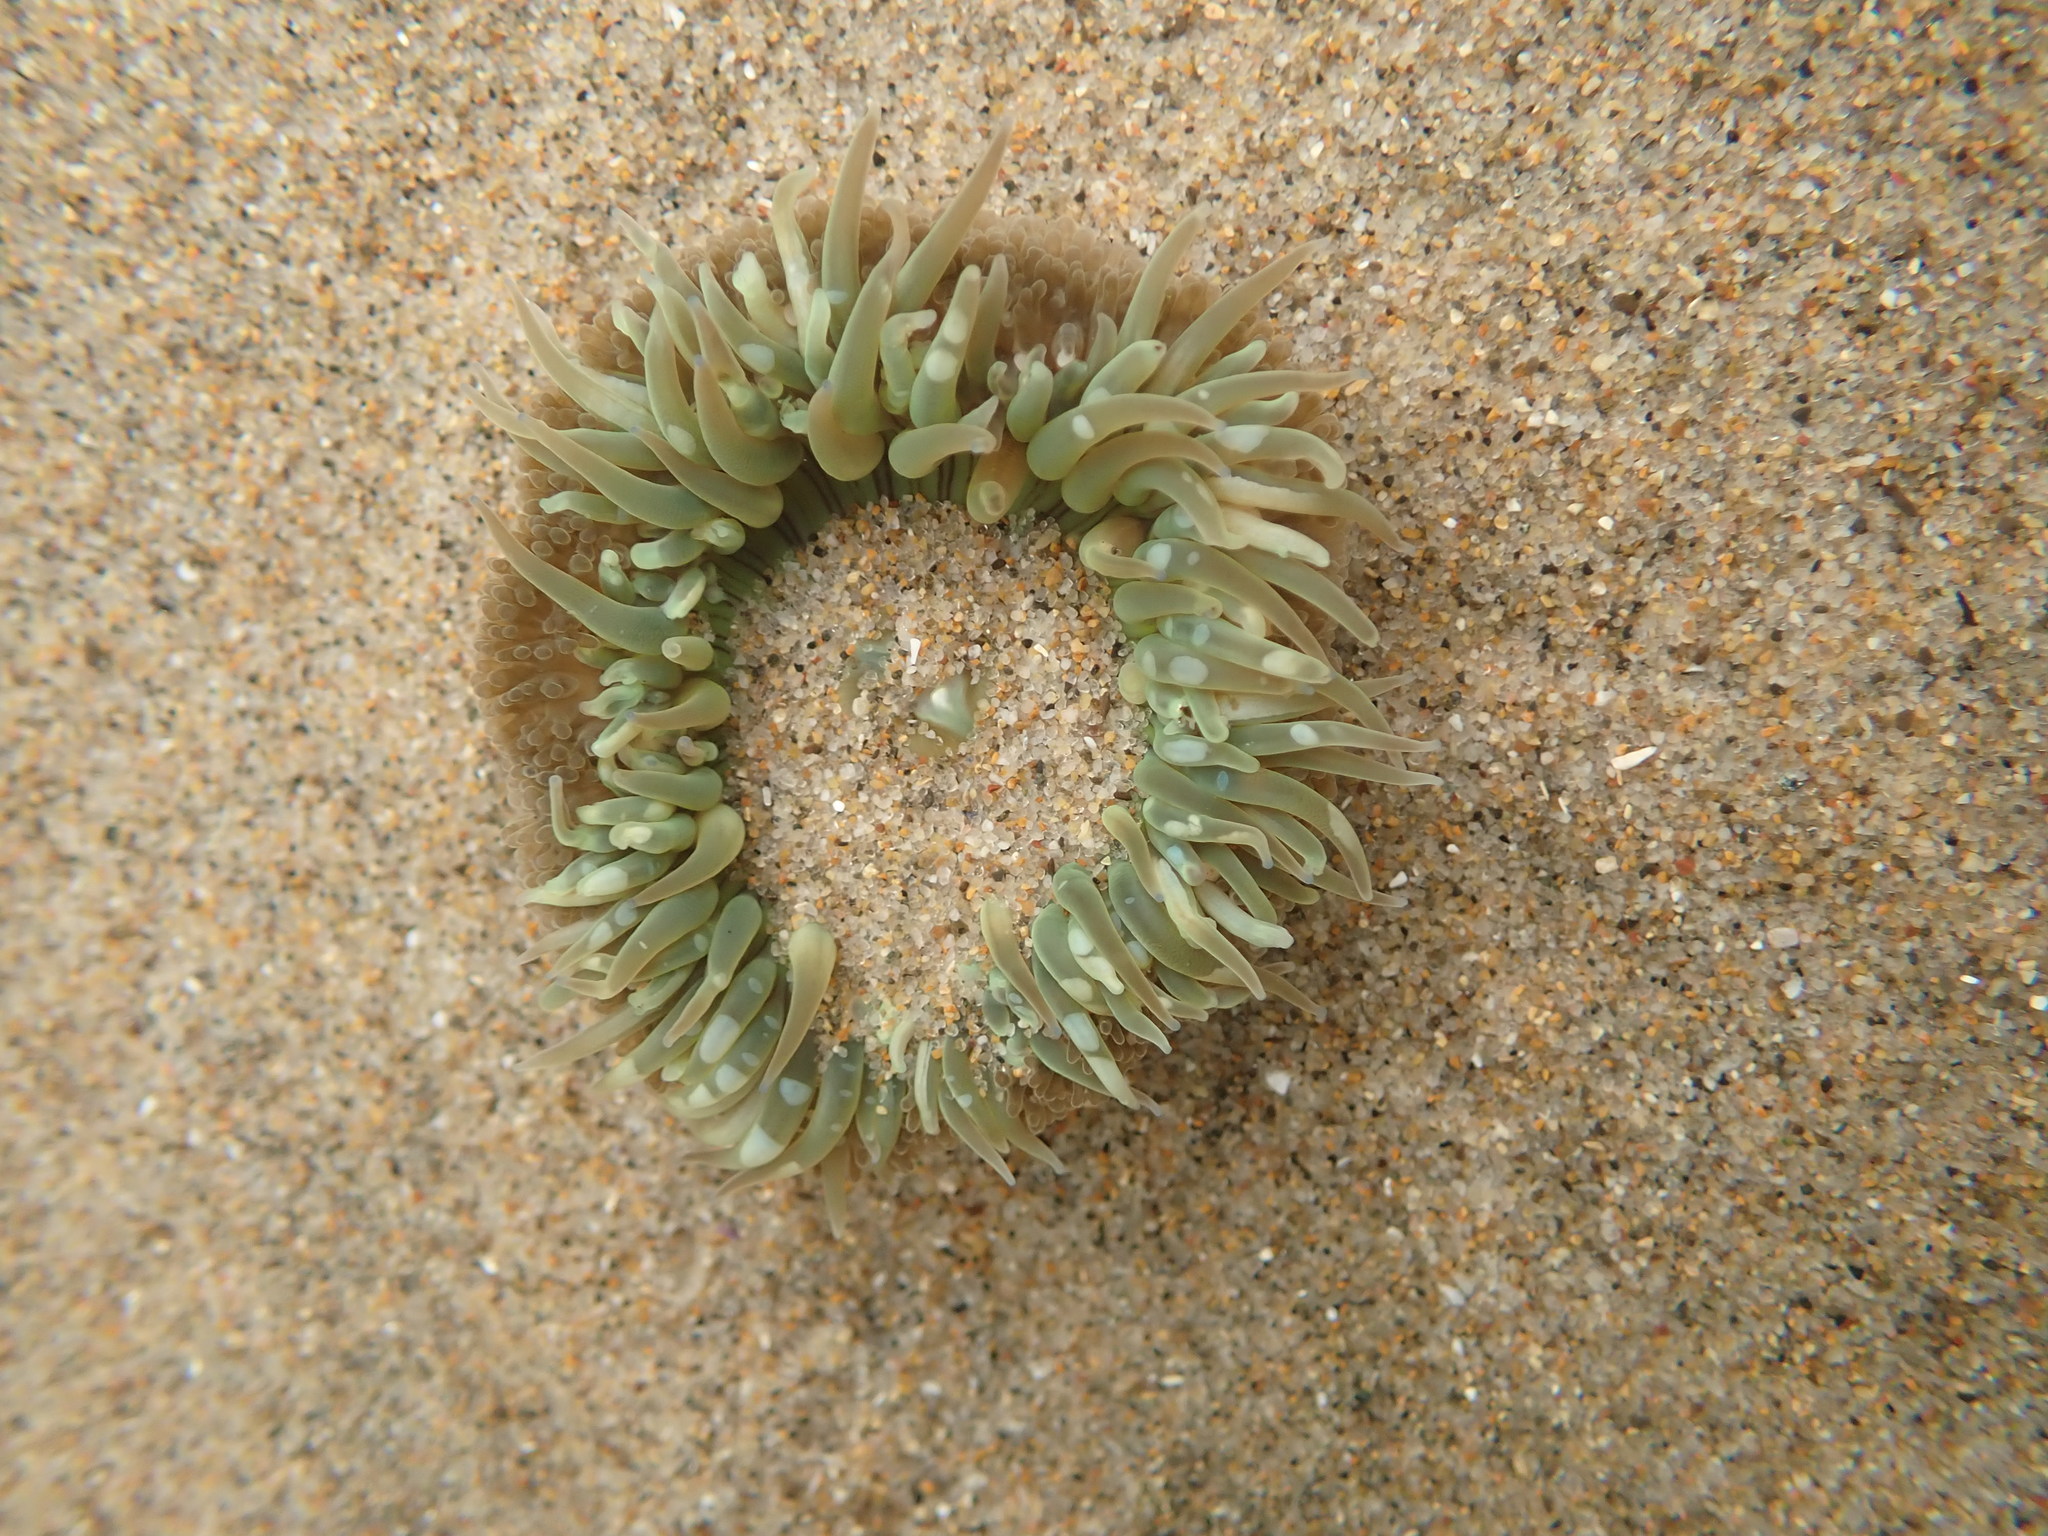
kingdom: Animalia
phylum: Cnidaria
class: Anthozoa
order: Actiniaria
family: Actiniidae
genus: Anthopleura
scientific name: Anthopleura sola
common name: Sun anemone
